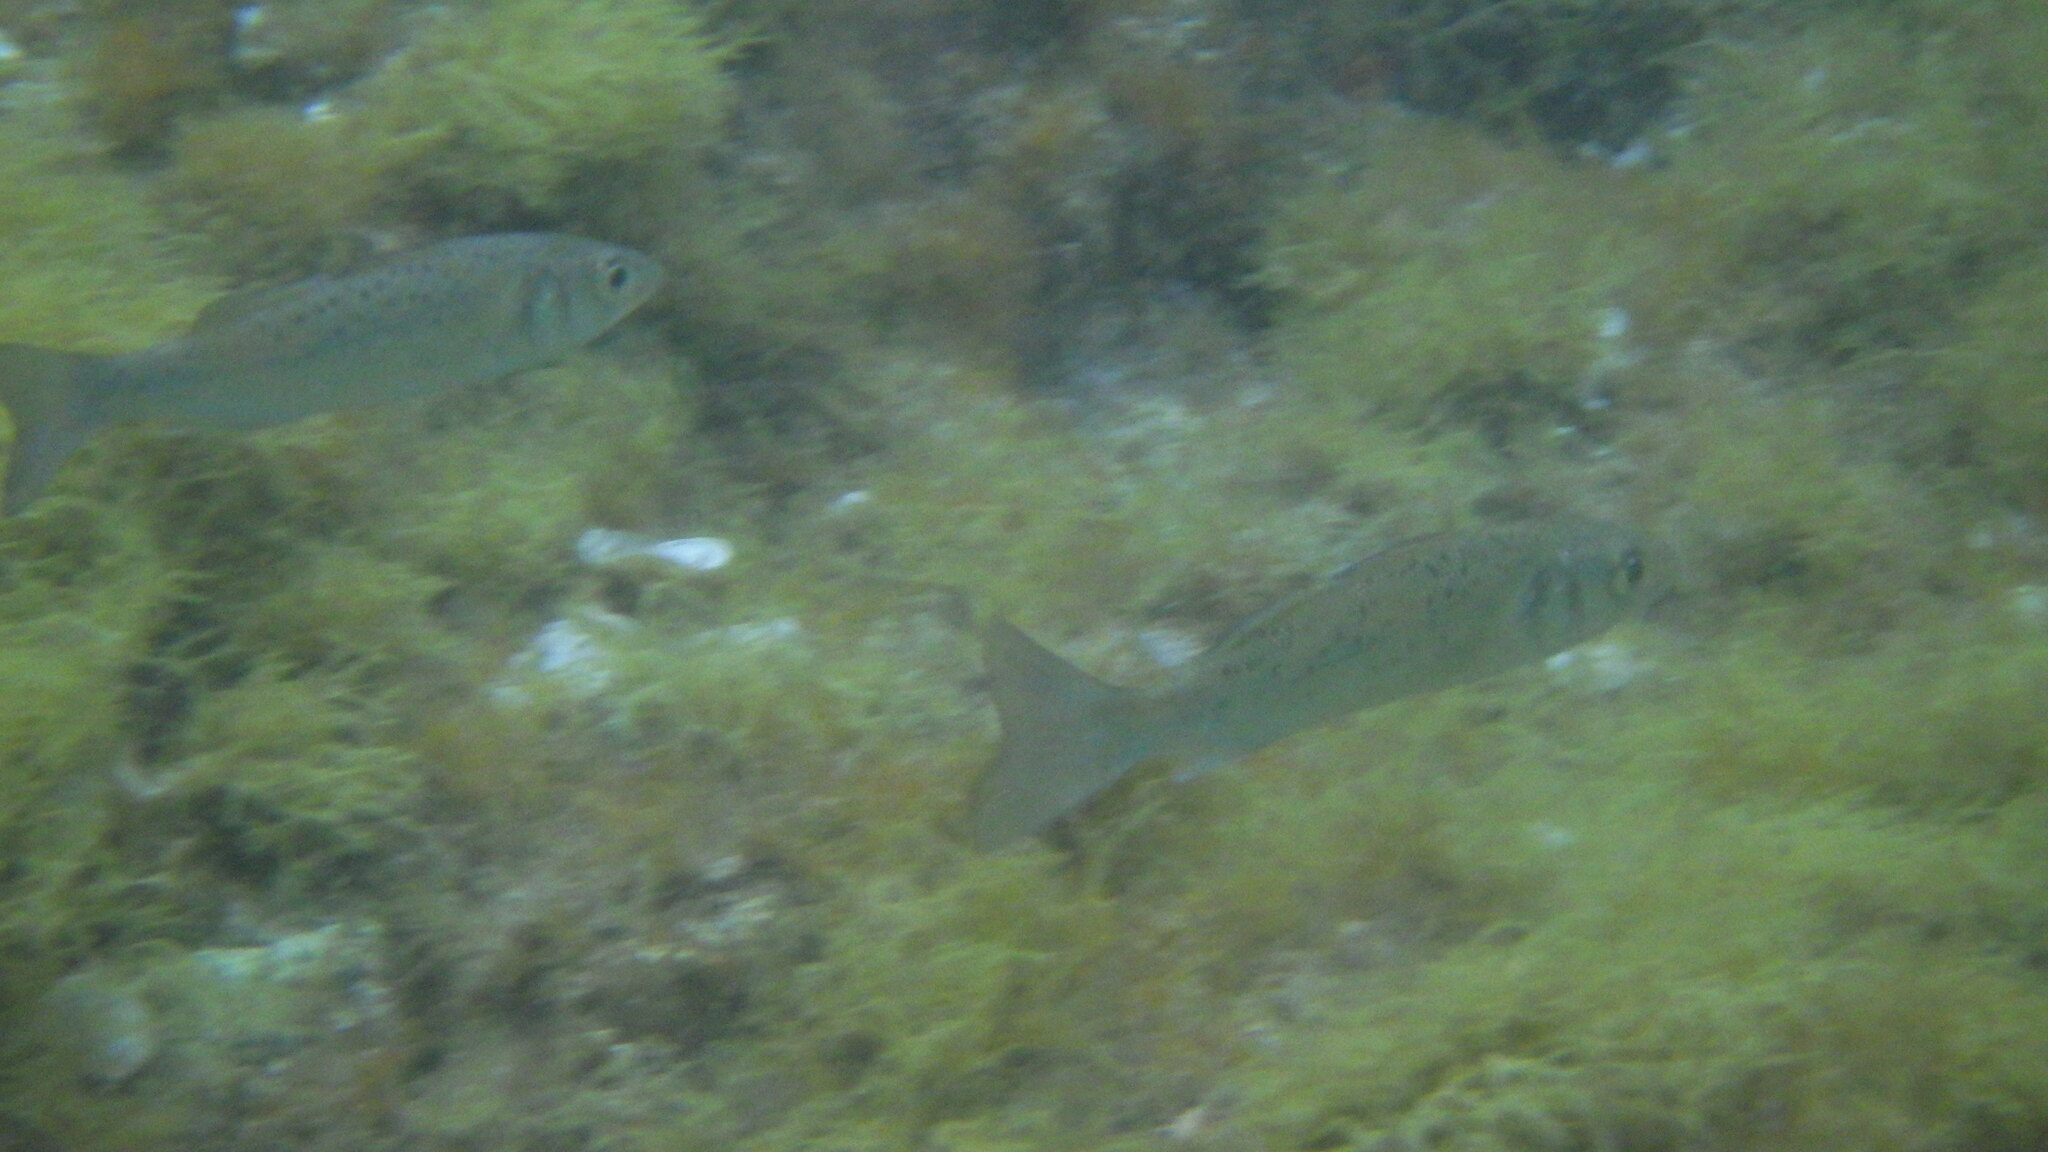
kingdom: Animalia
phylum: Chordata
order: Perciformes
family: Moronidae
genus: Dicentrarchus
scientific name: Dicentrarchus labrax
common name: European seabass
